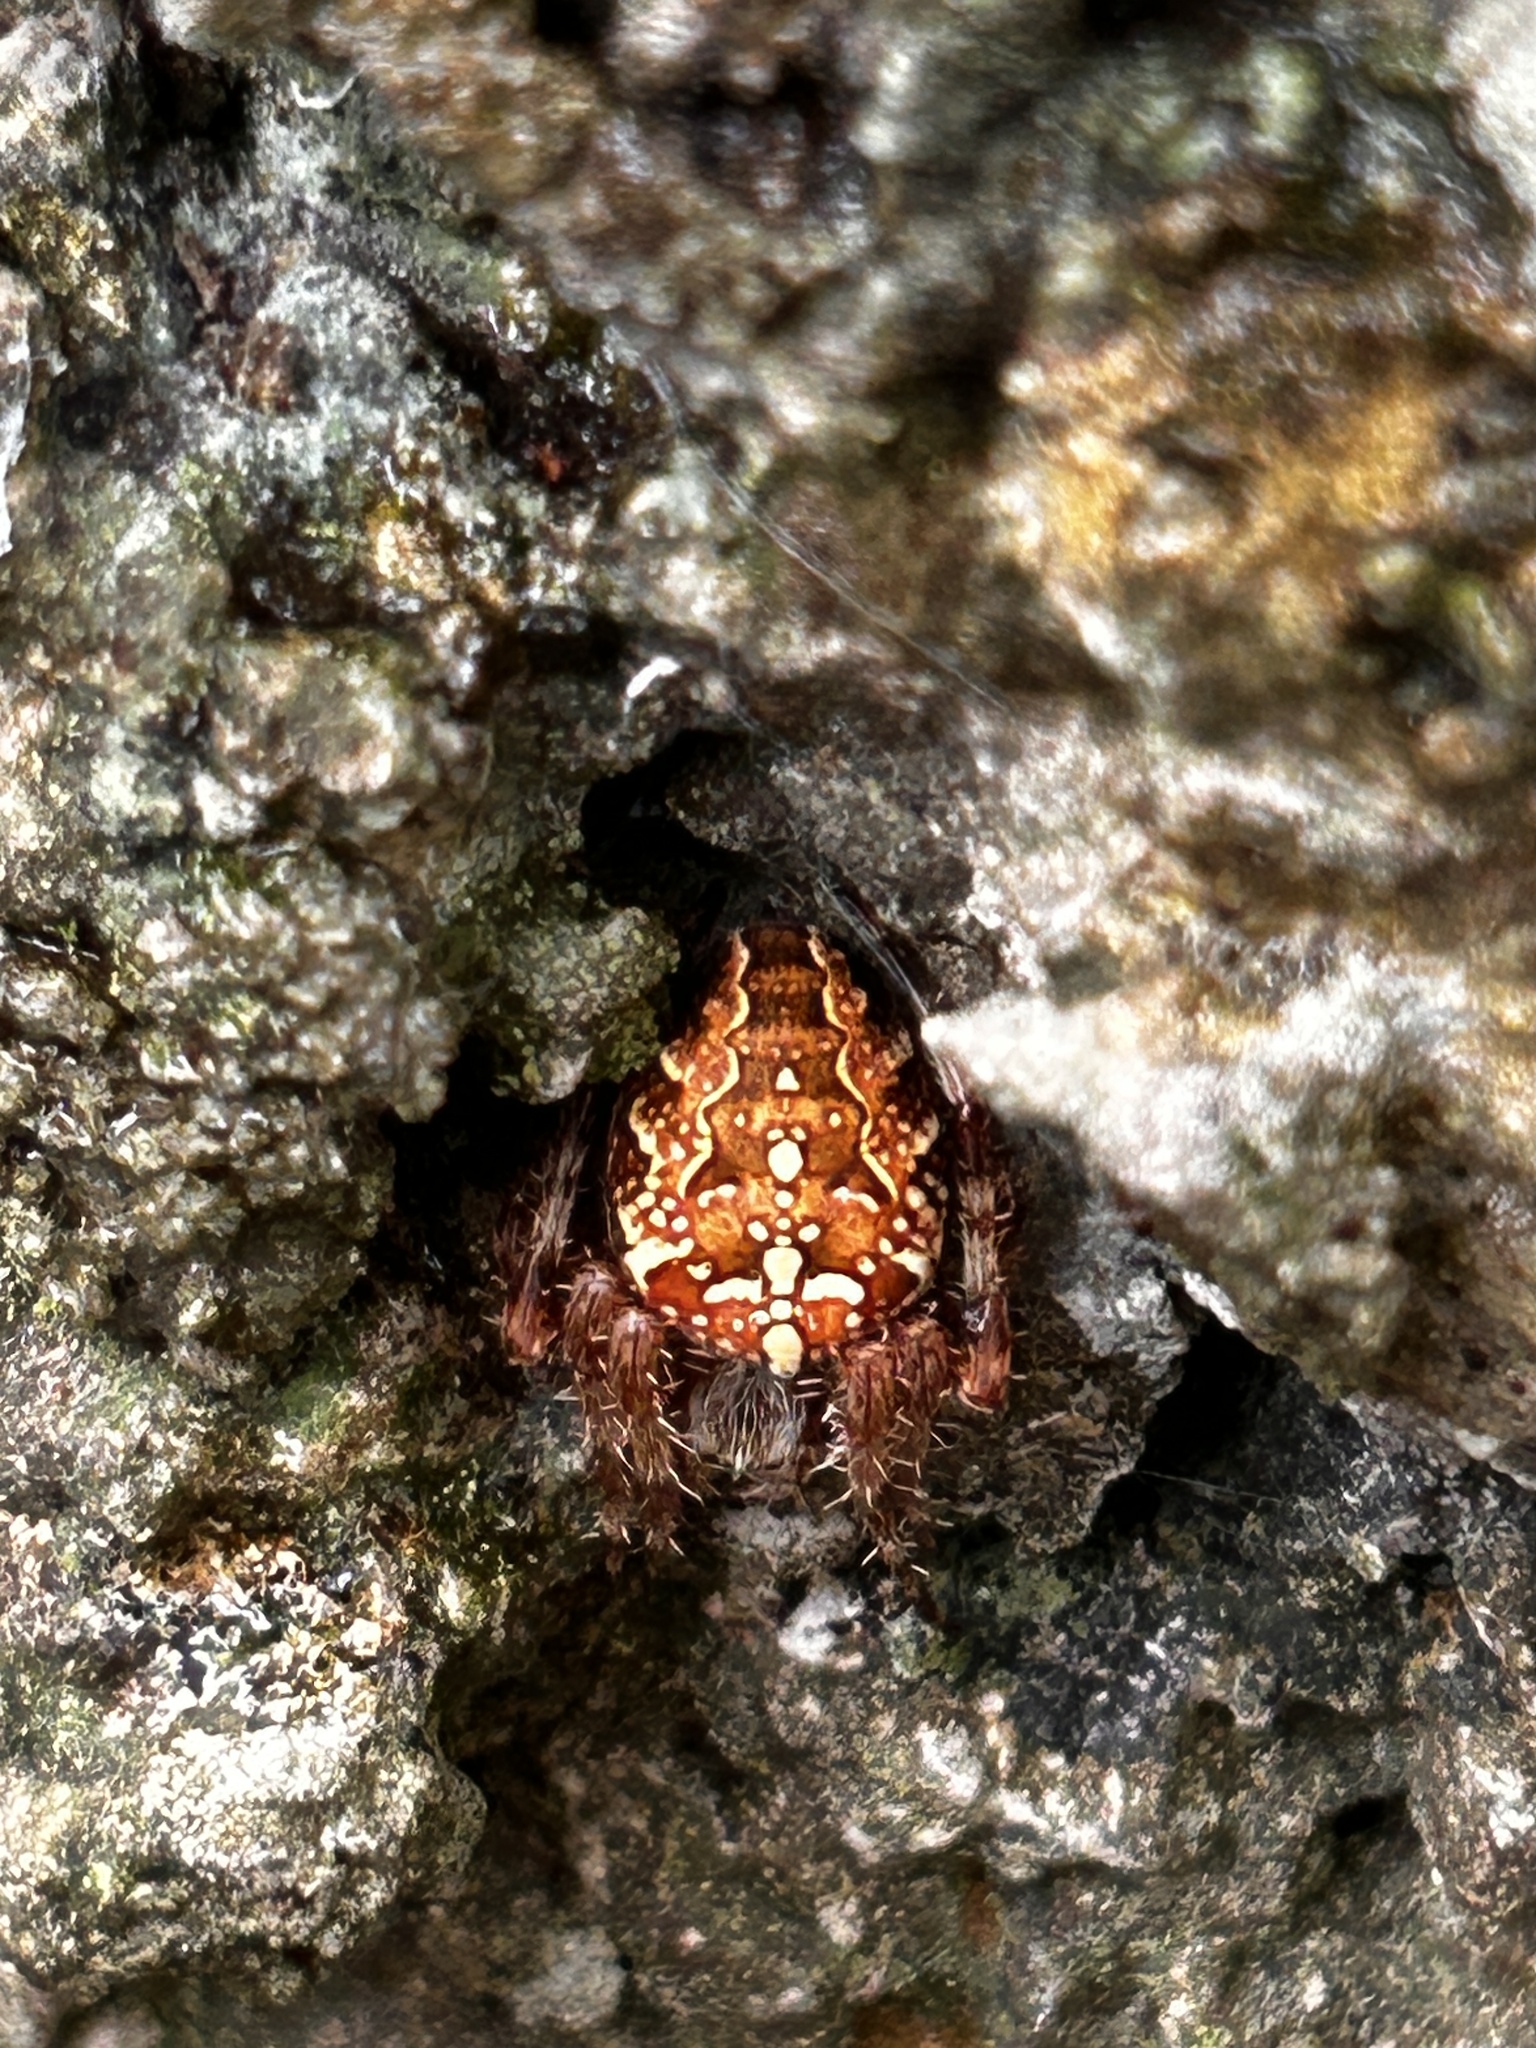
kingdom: Animalia
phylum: Arthropoda
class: Arachnida
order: Araneae
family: Araneidae
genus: Araneus
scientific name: Araneus diadematus
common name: Cross orbweaver
